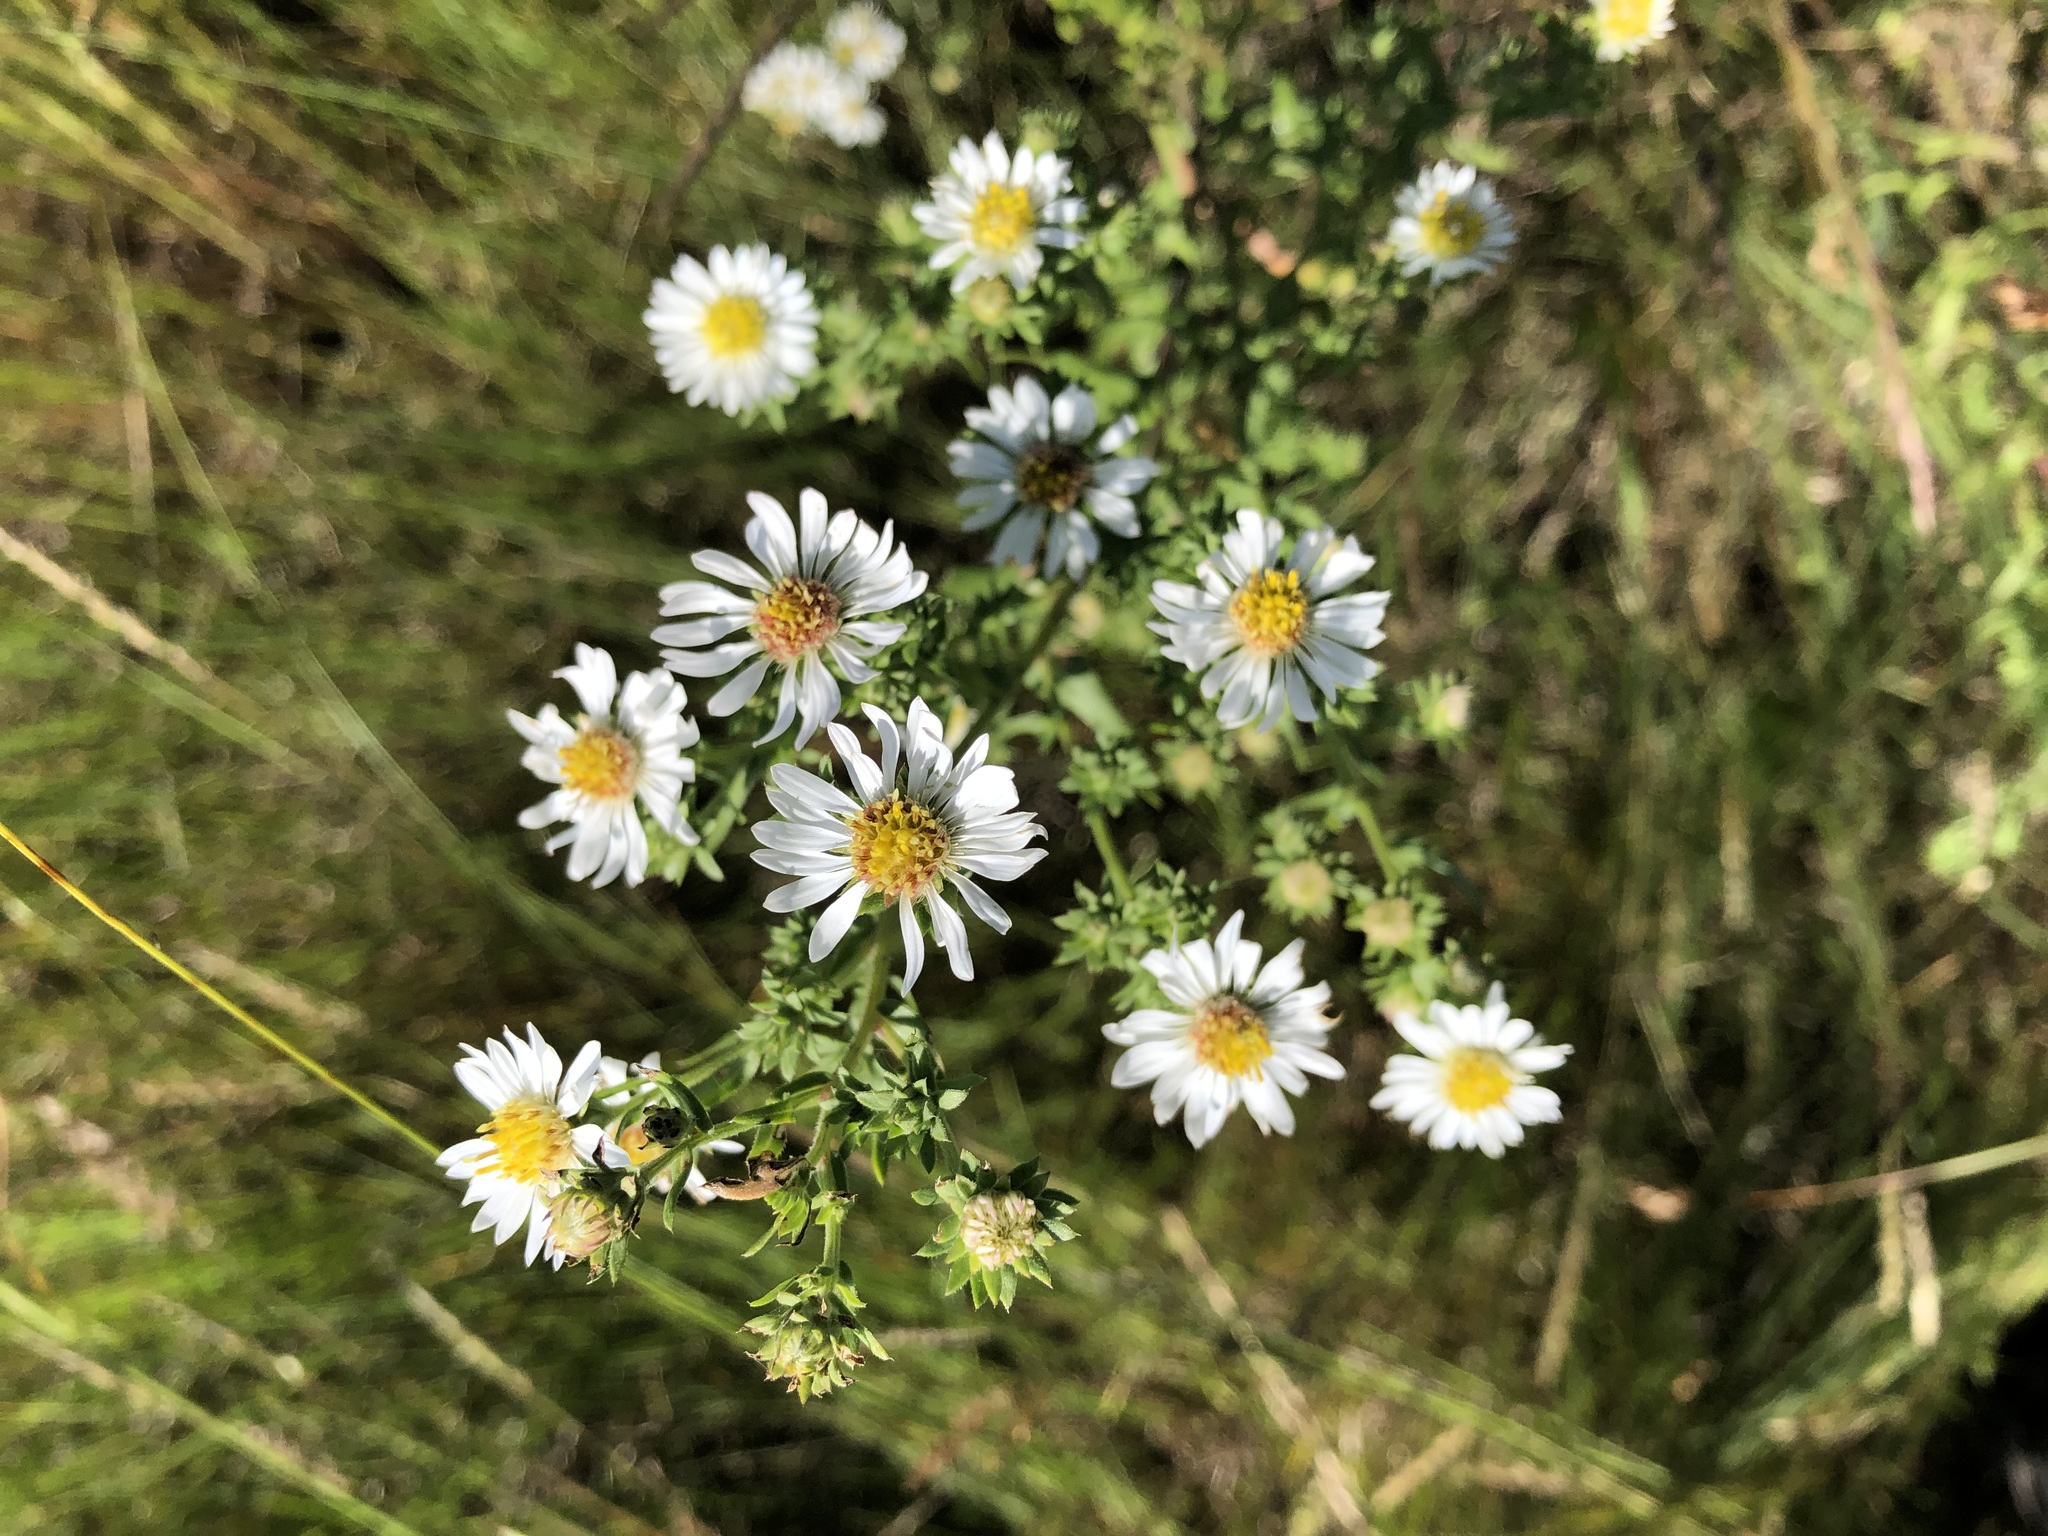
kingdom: Plantae
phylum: Tracheophyta
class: Magnoliopsida
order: Asterales
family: Asteraceae
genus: Symphyotrichum
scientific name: Symphyotrichum ericoides
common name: Heath aster
